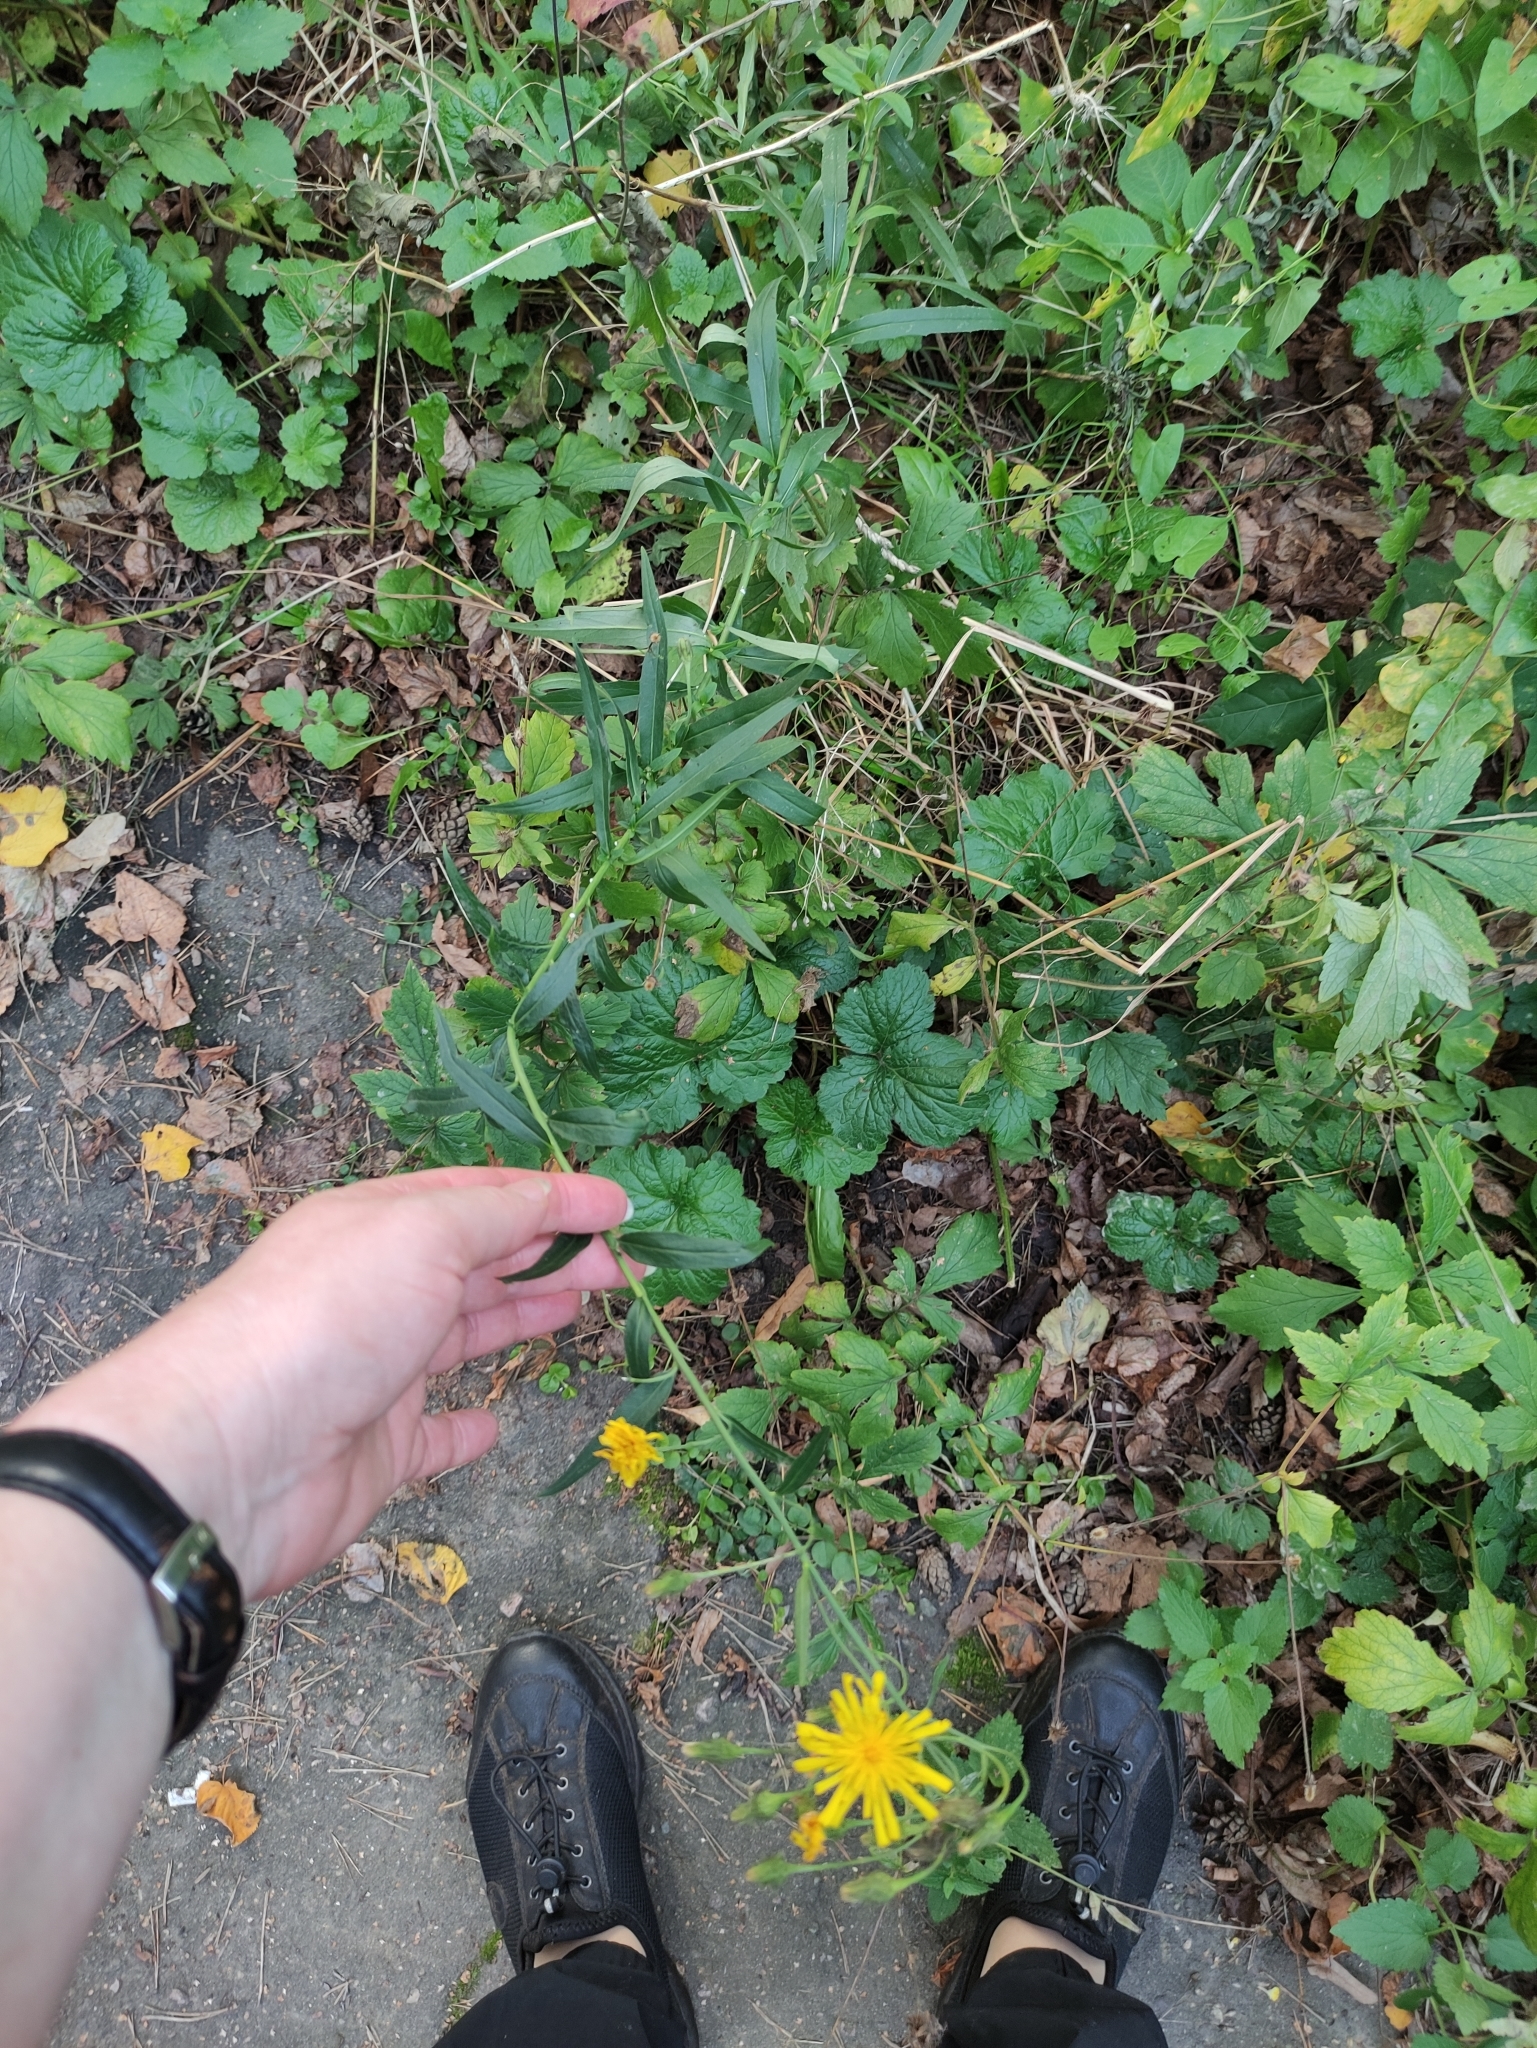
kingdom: Plantae
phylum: Tracheophyta
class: Magnoliopsida
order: Asterales
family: Asteraceae
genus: Hieracium
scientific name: Hieracium umbellatum
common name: Northern hawkweed
